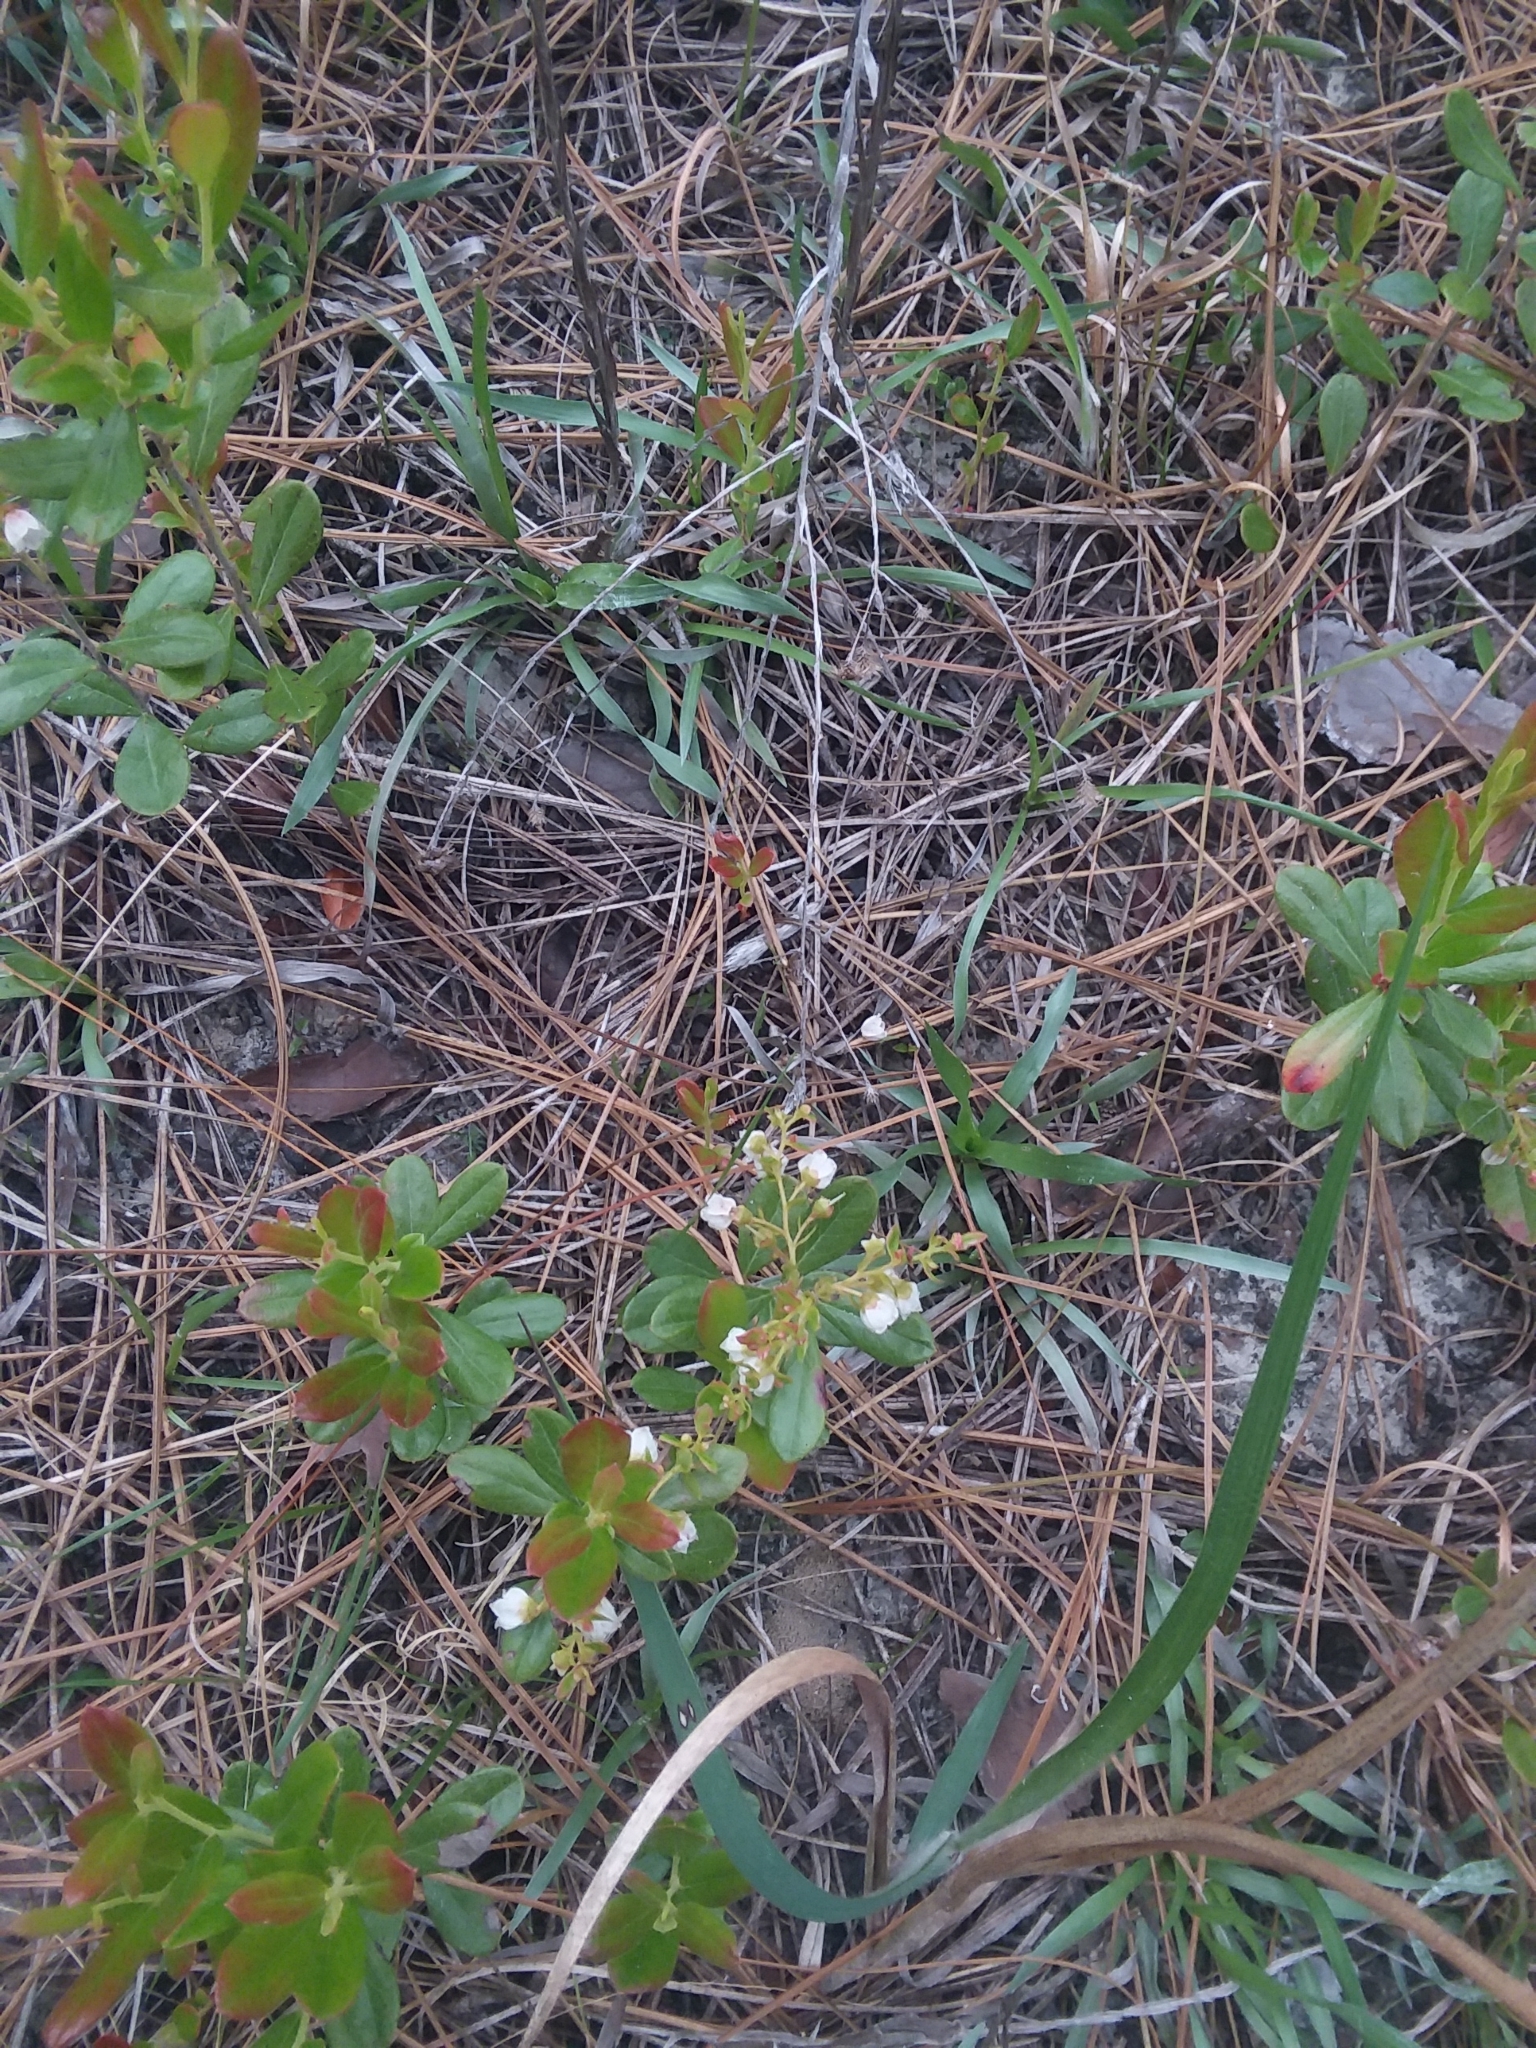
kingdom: Plantae
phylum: Tracheophyta
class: Magnoliopsida
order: Ericales
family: Ericaceae
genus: Gaylussacia
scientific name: Gaylussacia dumosa
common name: Dwarf huckleberry
